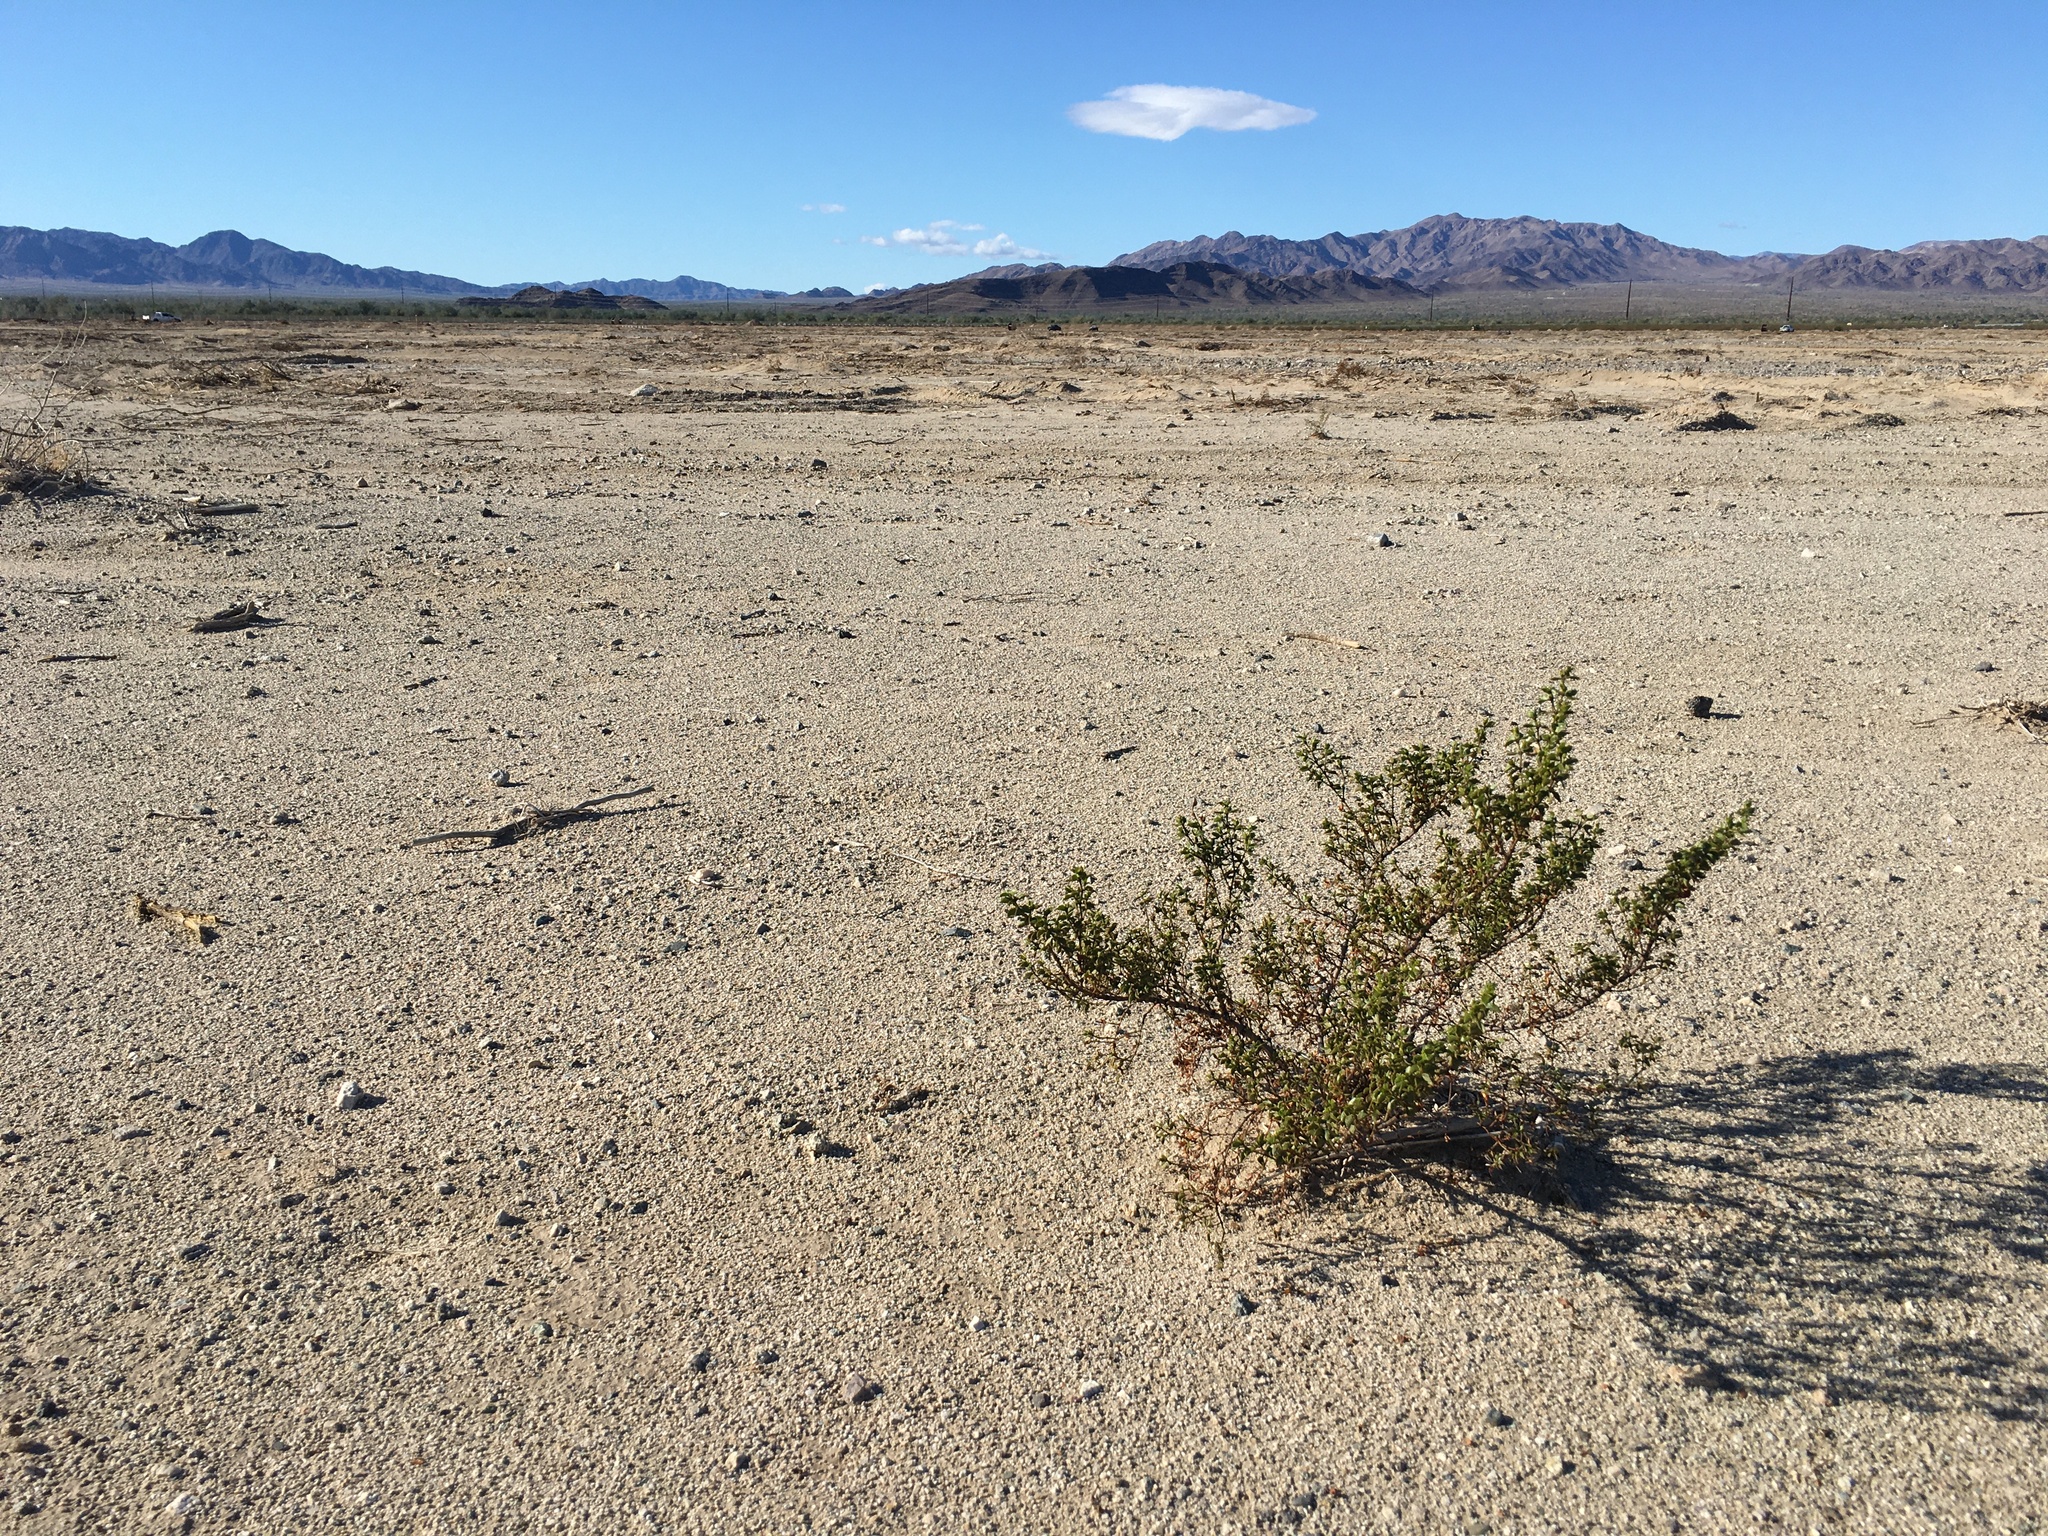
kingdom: Plantae
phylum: Tracheophyta
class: Magnoliopsida
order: Zygophyllales
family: Zygophyllaceae
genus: Larrea
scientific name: Larrea tridentata
